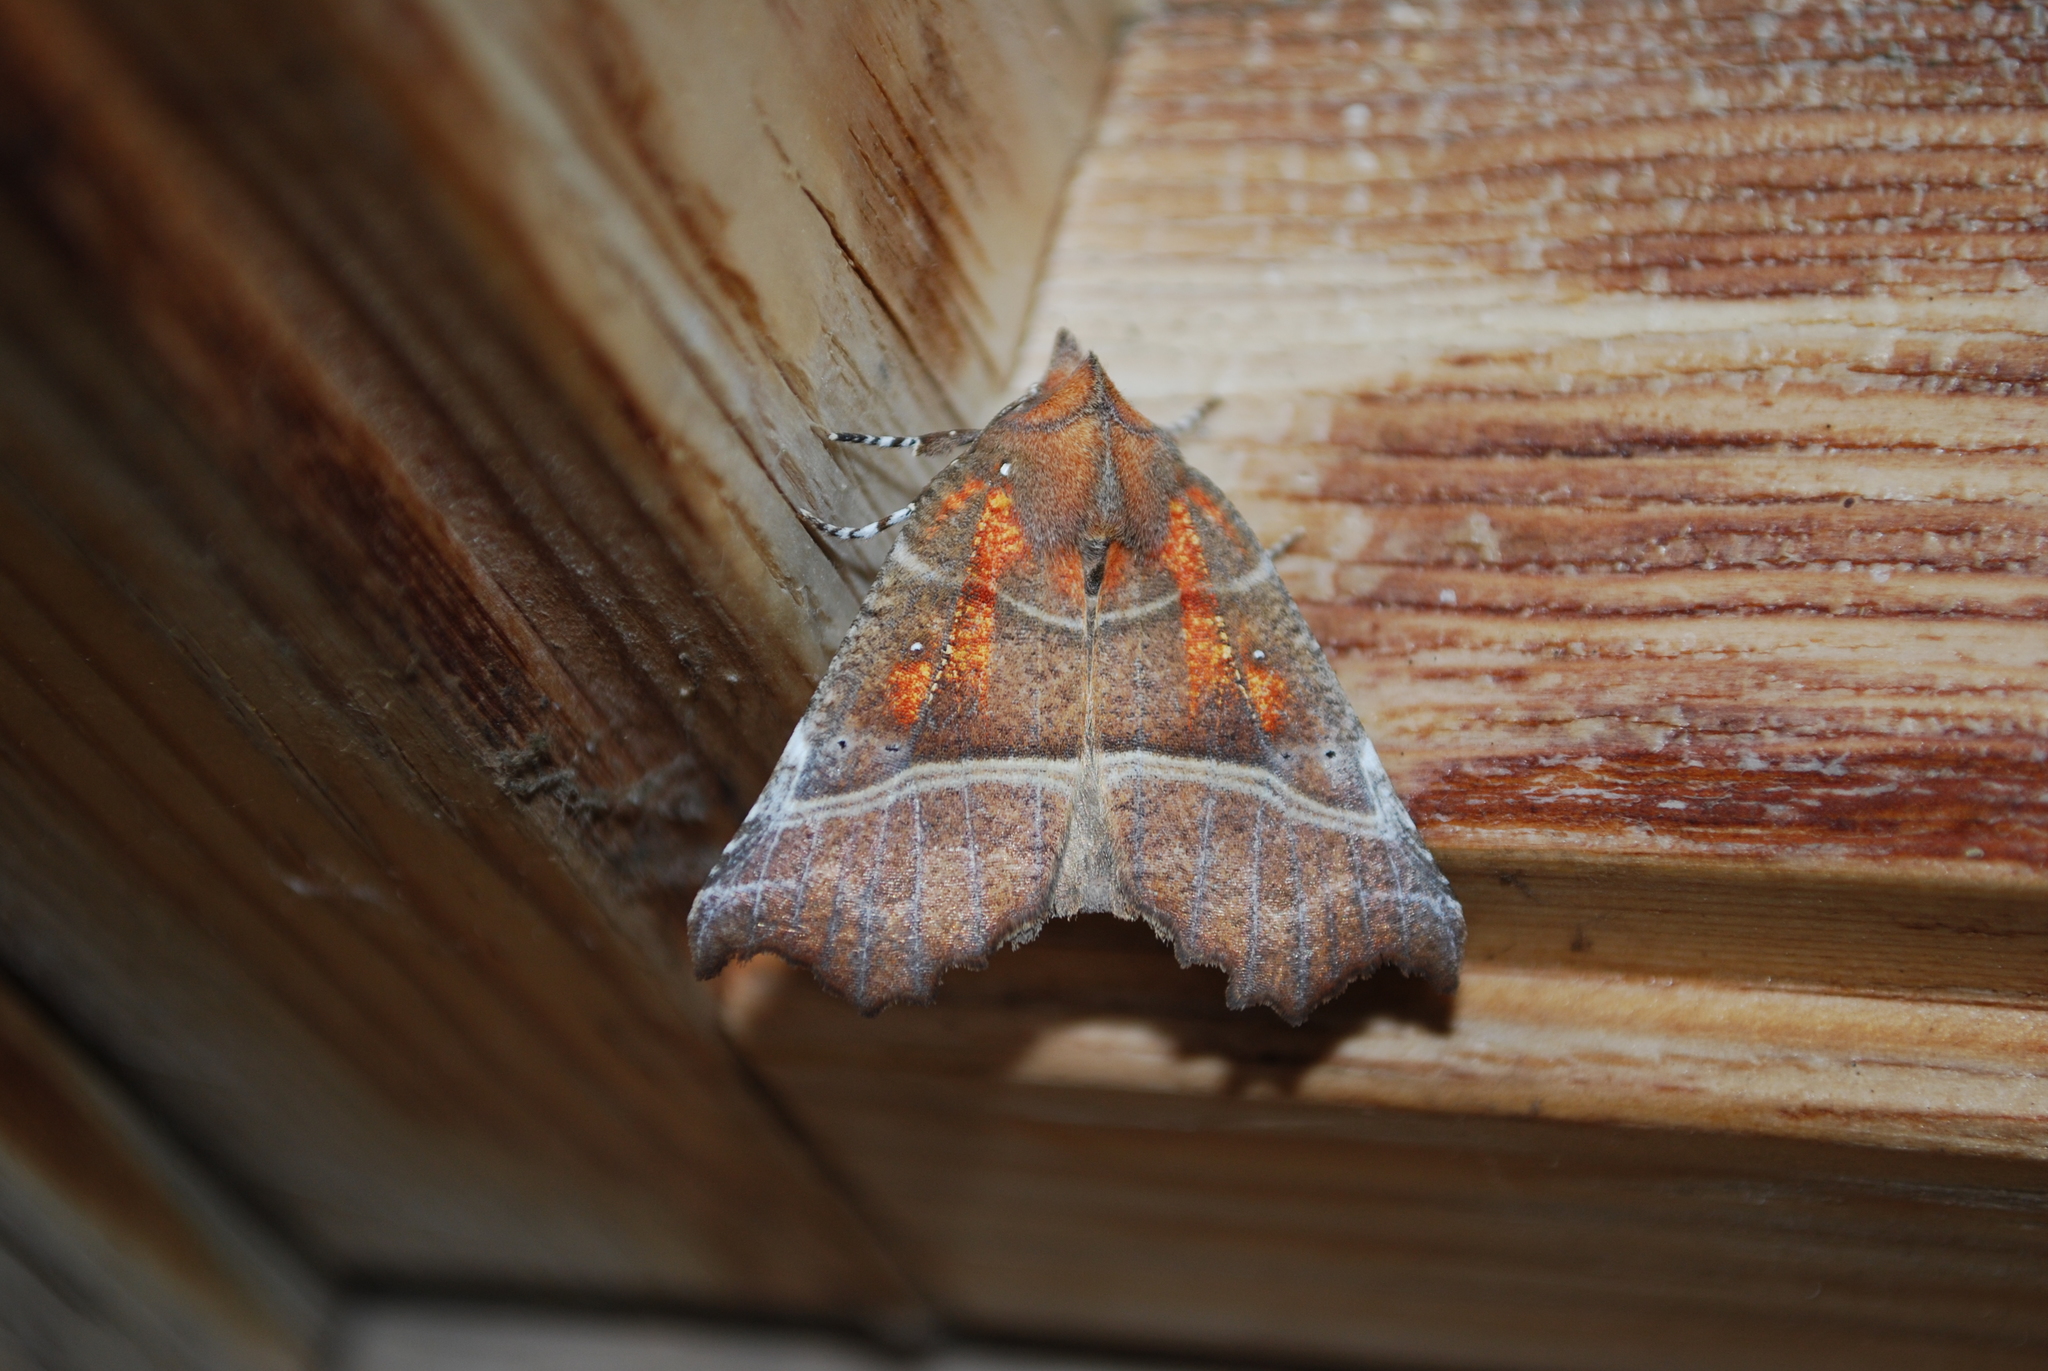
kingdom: Animalia
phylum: Arthropoda
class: Insecta
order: Lepidoptera
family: Erebidae
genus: Scoliopteryx
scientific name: Scoliopteryx libatrix
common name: Herald
